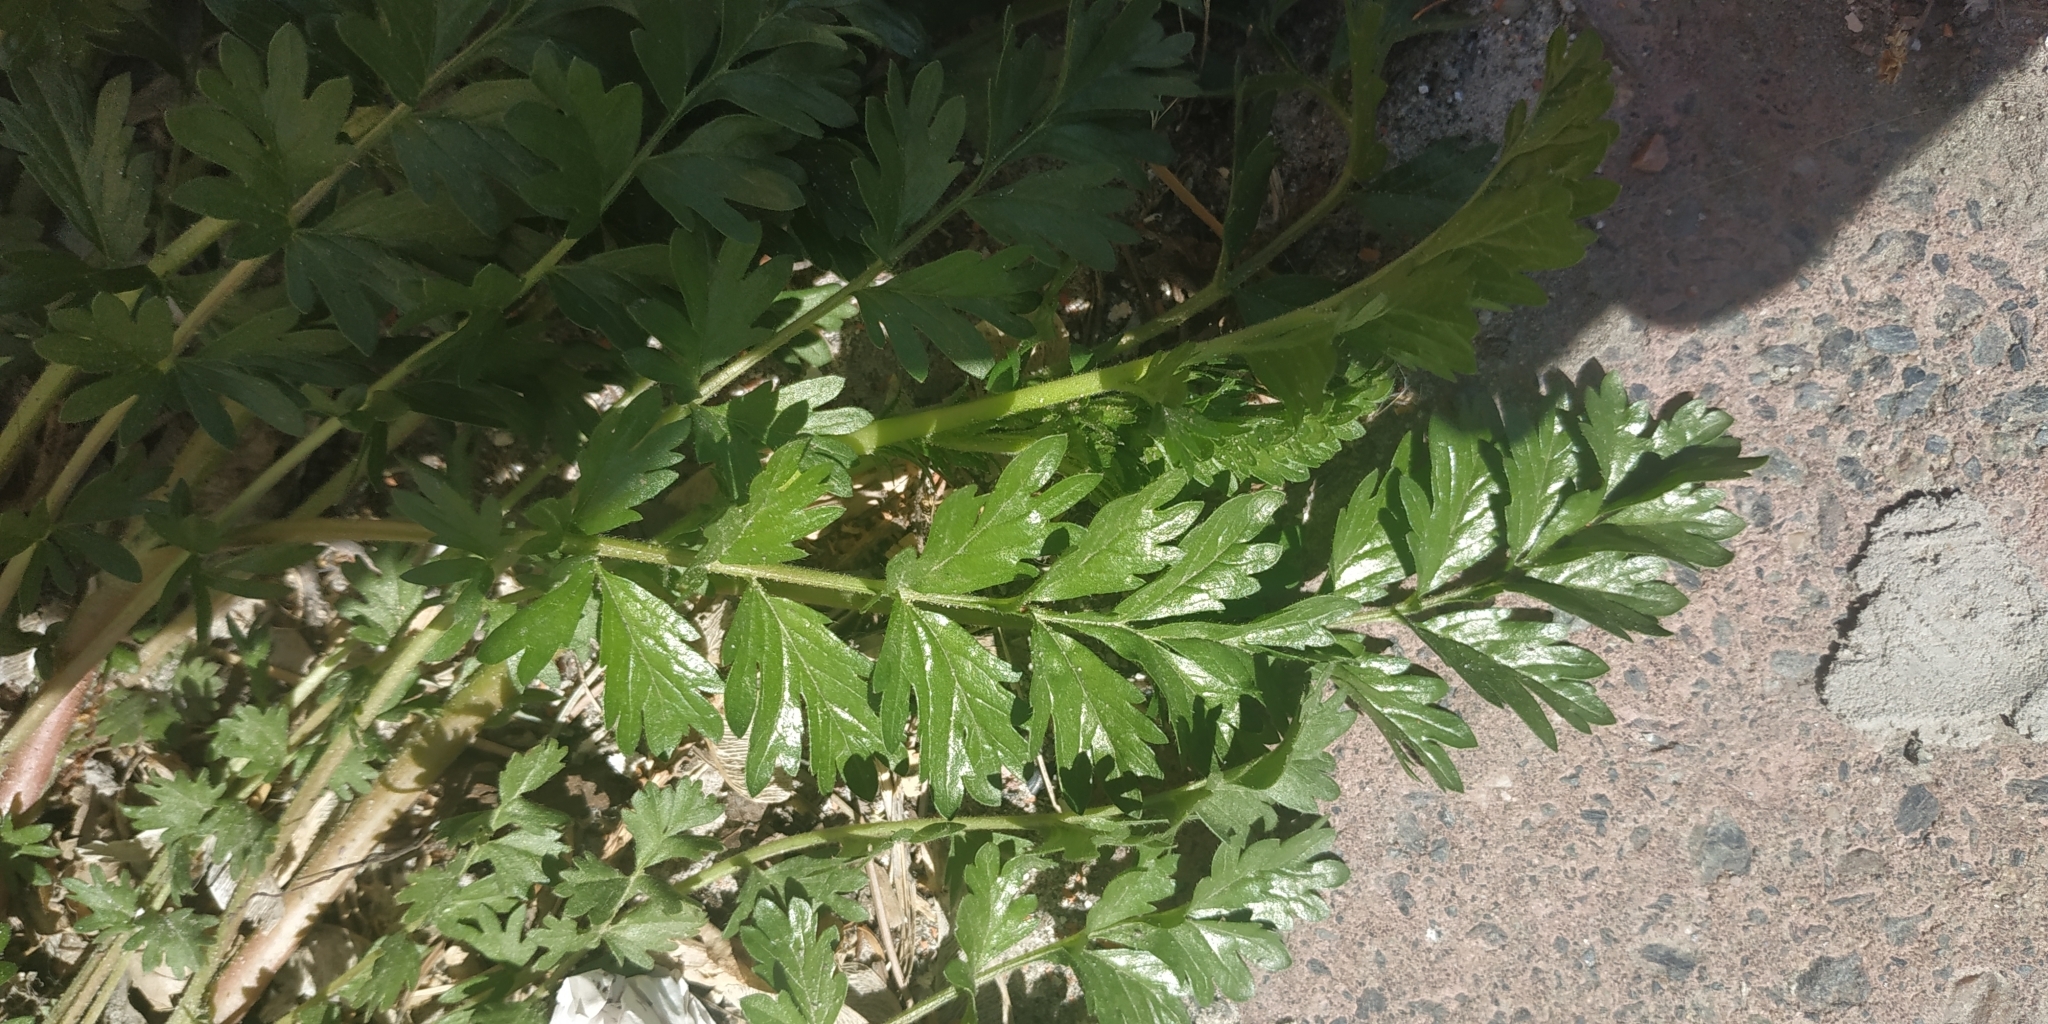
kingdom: Plantae
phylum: Tracheophyta
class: Magnoliopsida
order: Rosales
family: Rosaceae
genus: Potentilla
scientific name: Potentilla supina
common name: Prostrate cinquefoil
